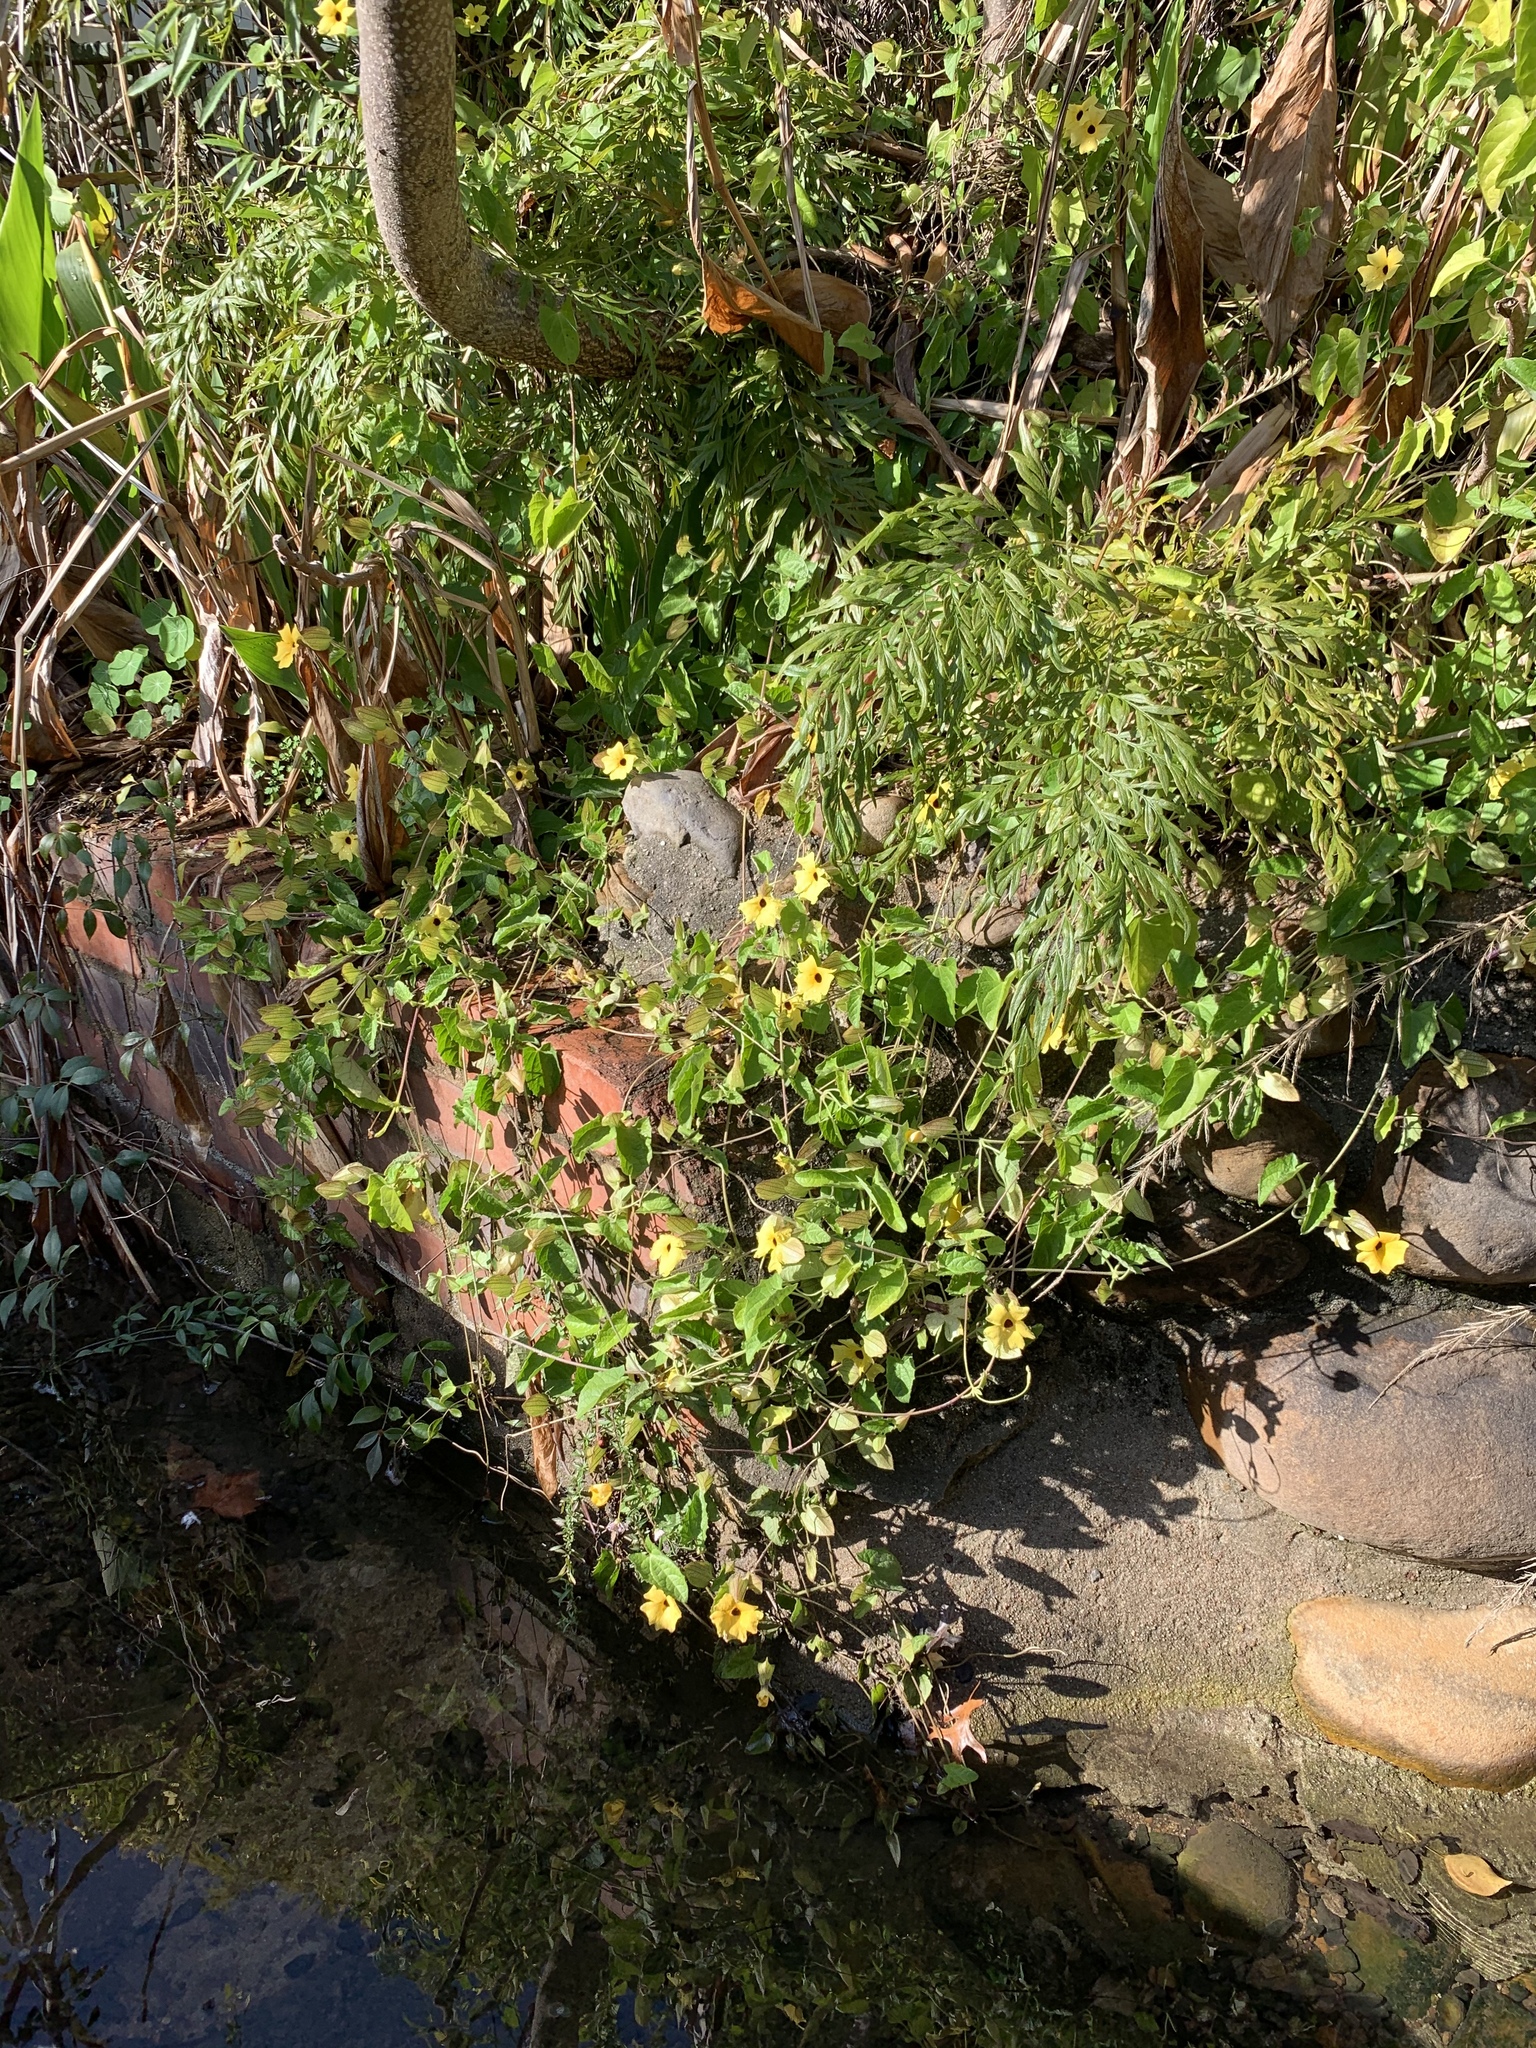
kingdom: Plantae
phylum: Tracheophyta
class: Magnoliopsida
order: Lamiales
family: Acanthaceae
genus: Thunbergia
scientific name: Thunbergia alata
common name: Blackeyed susan vine
